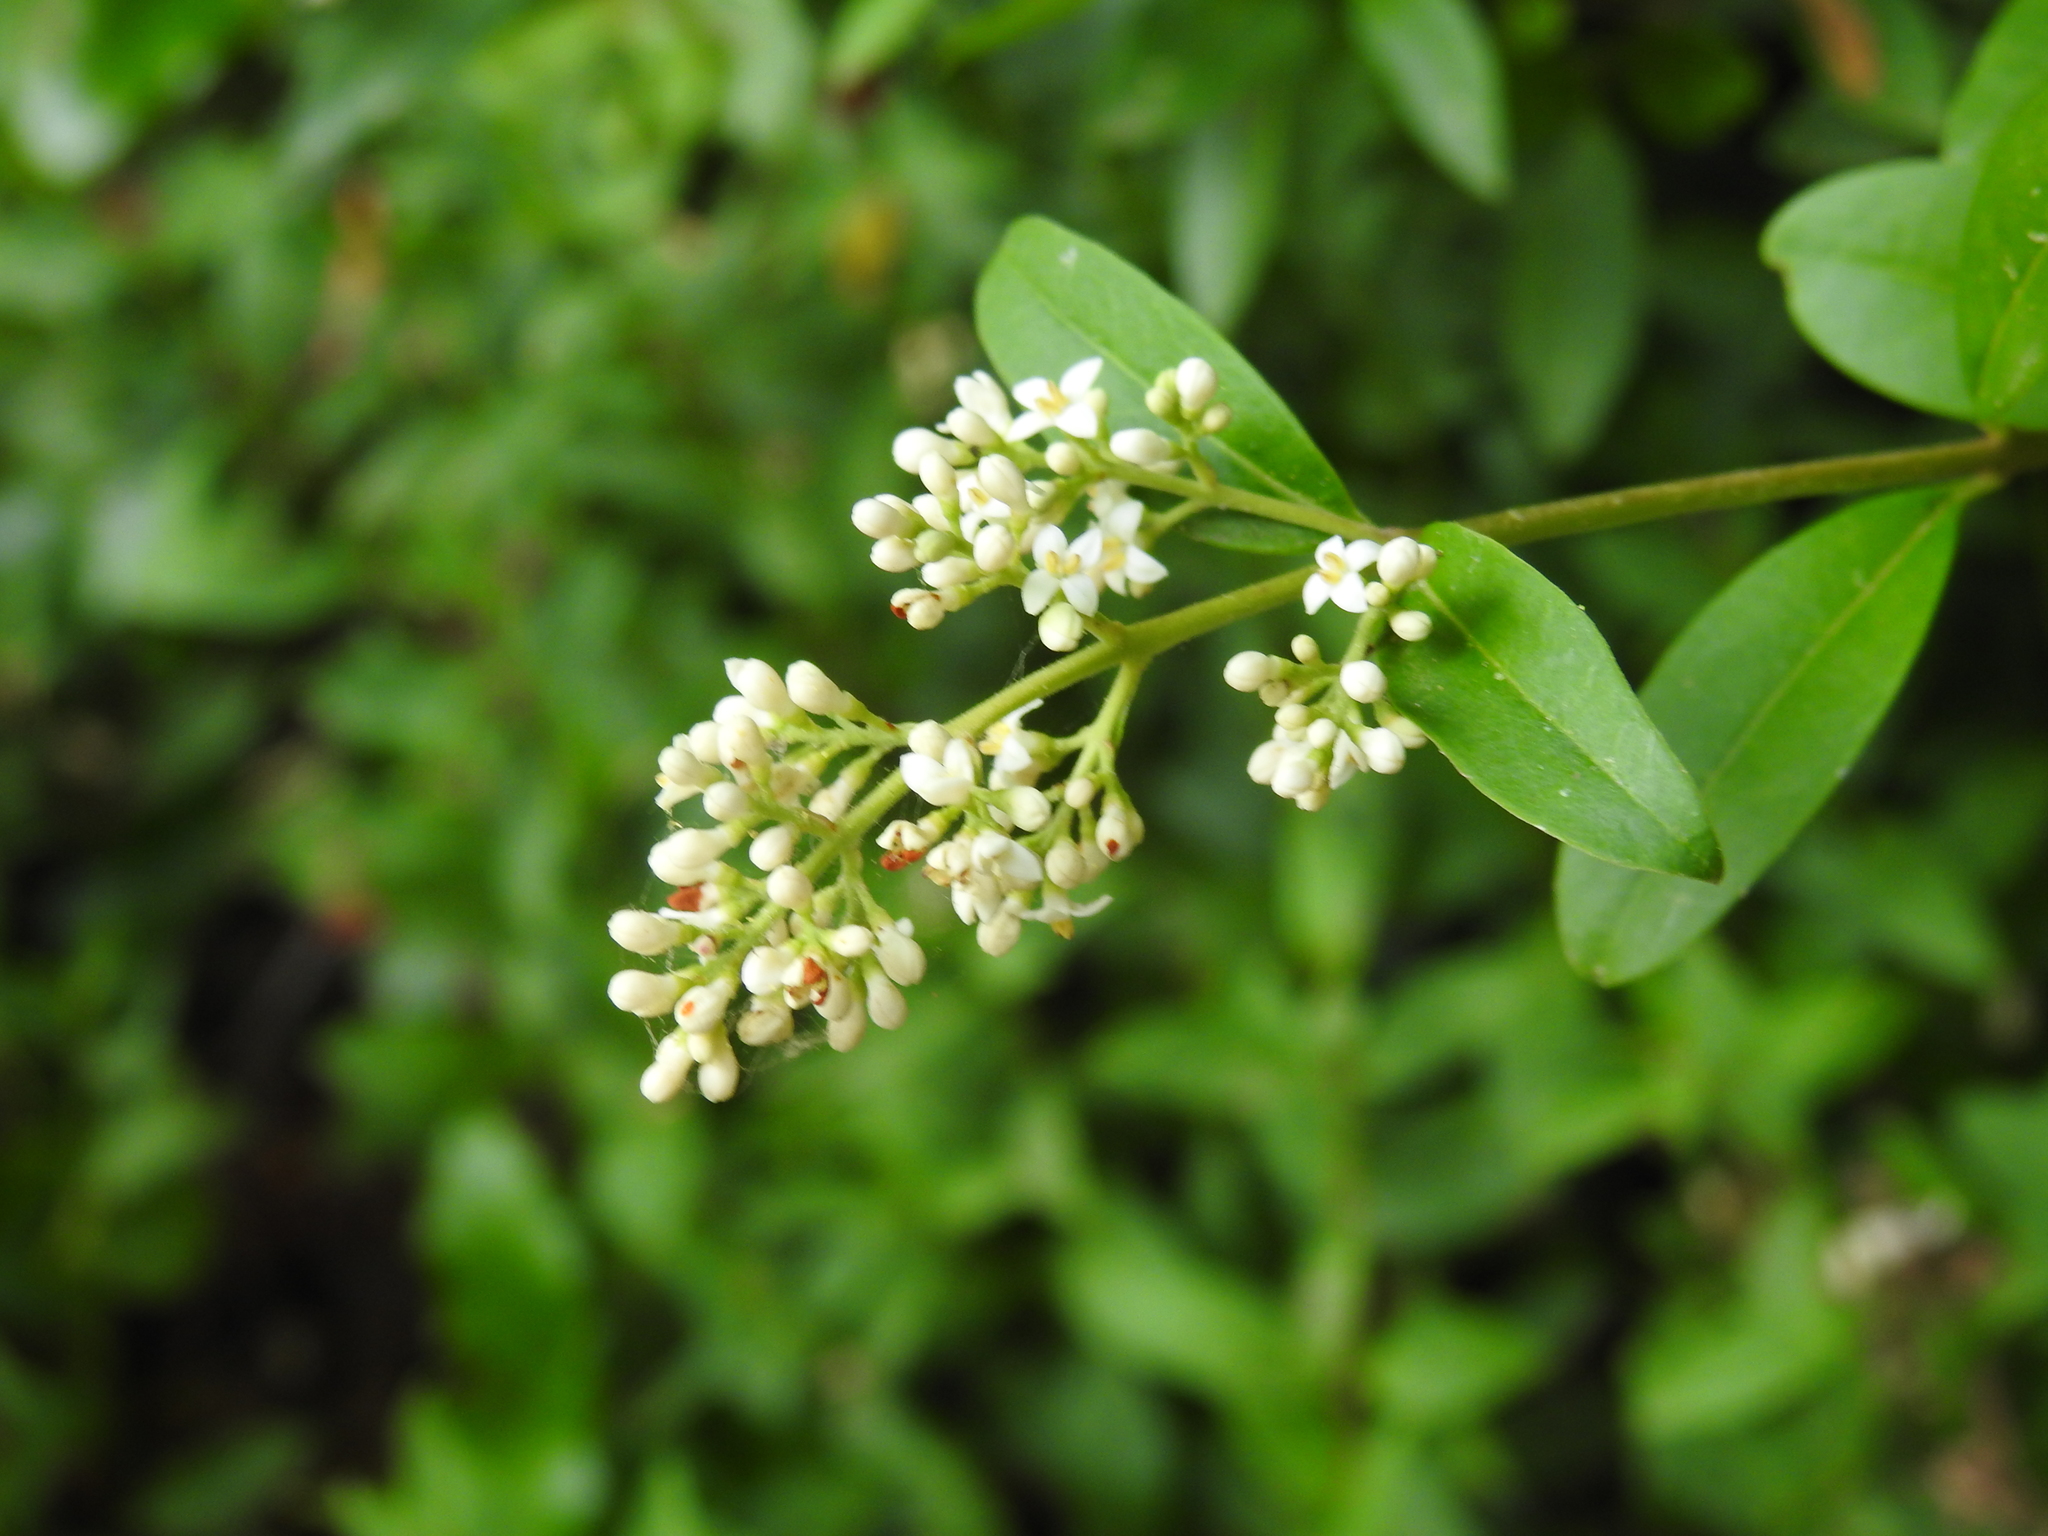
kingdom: Plantae
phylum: Tracheophyta
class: Magnoliopsida
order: Lamiales
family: Oleaceae
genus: Ligustrum
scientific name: Ligustrum vulgare
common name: Wild privet
